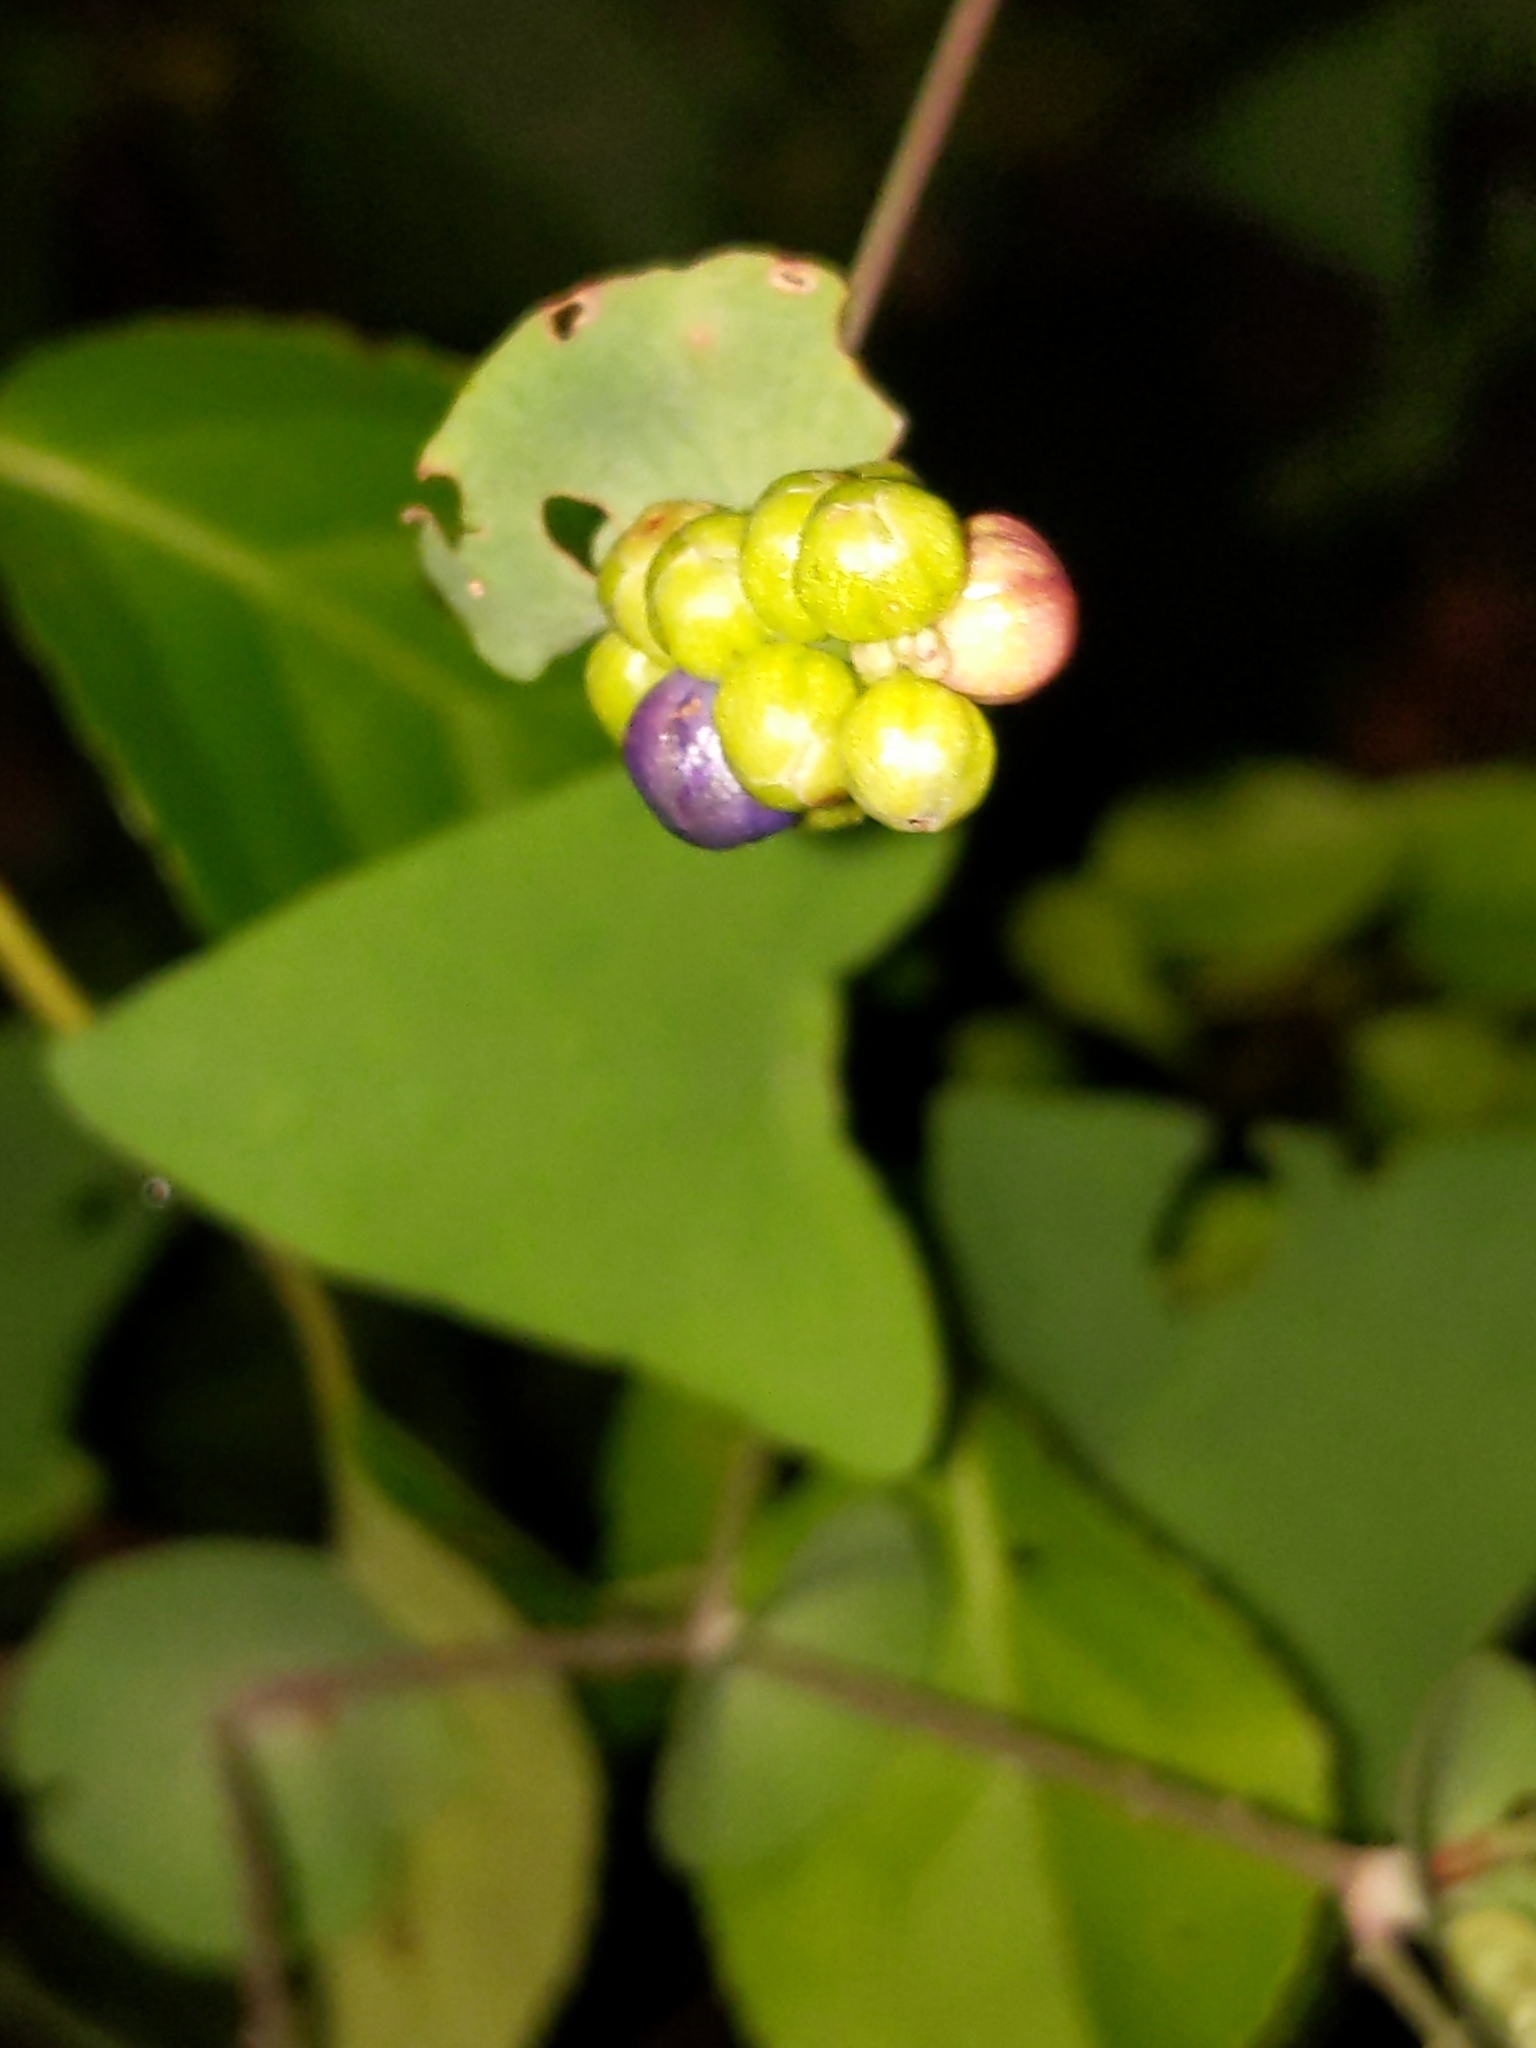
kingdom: Plantae
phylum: Tracheophyta
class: Magnoliopsida
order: Caryophyllales
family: Polygonaceae
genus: Persicaria
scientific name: Persicaria perfoliata
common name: Asiatic tearthumb
